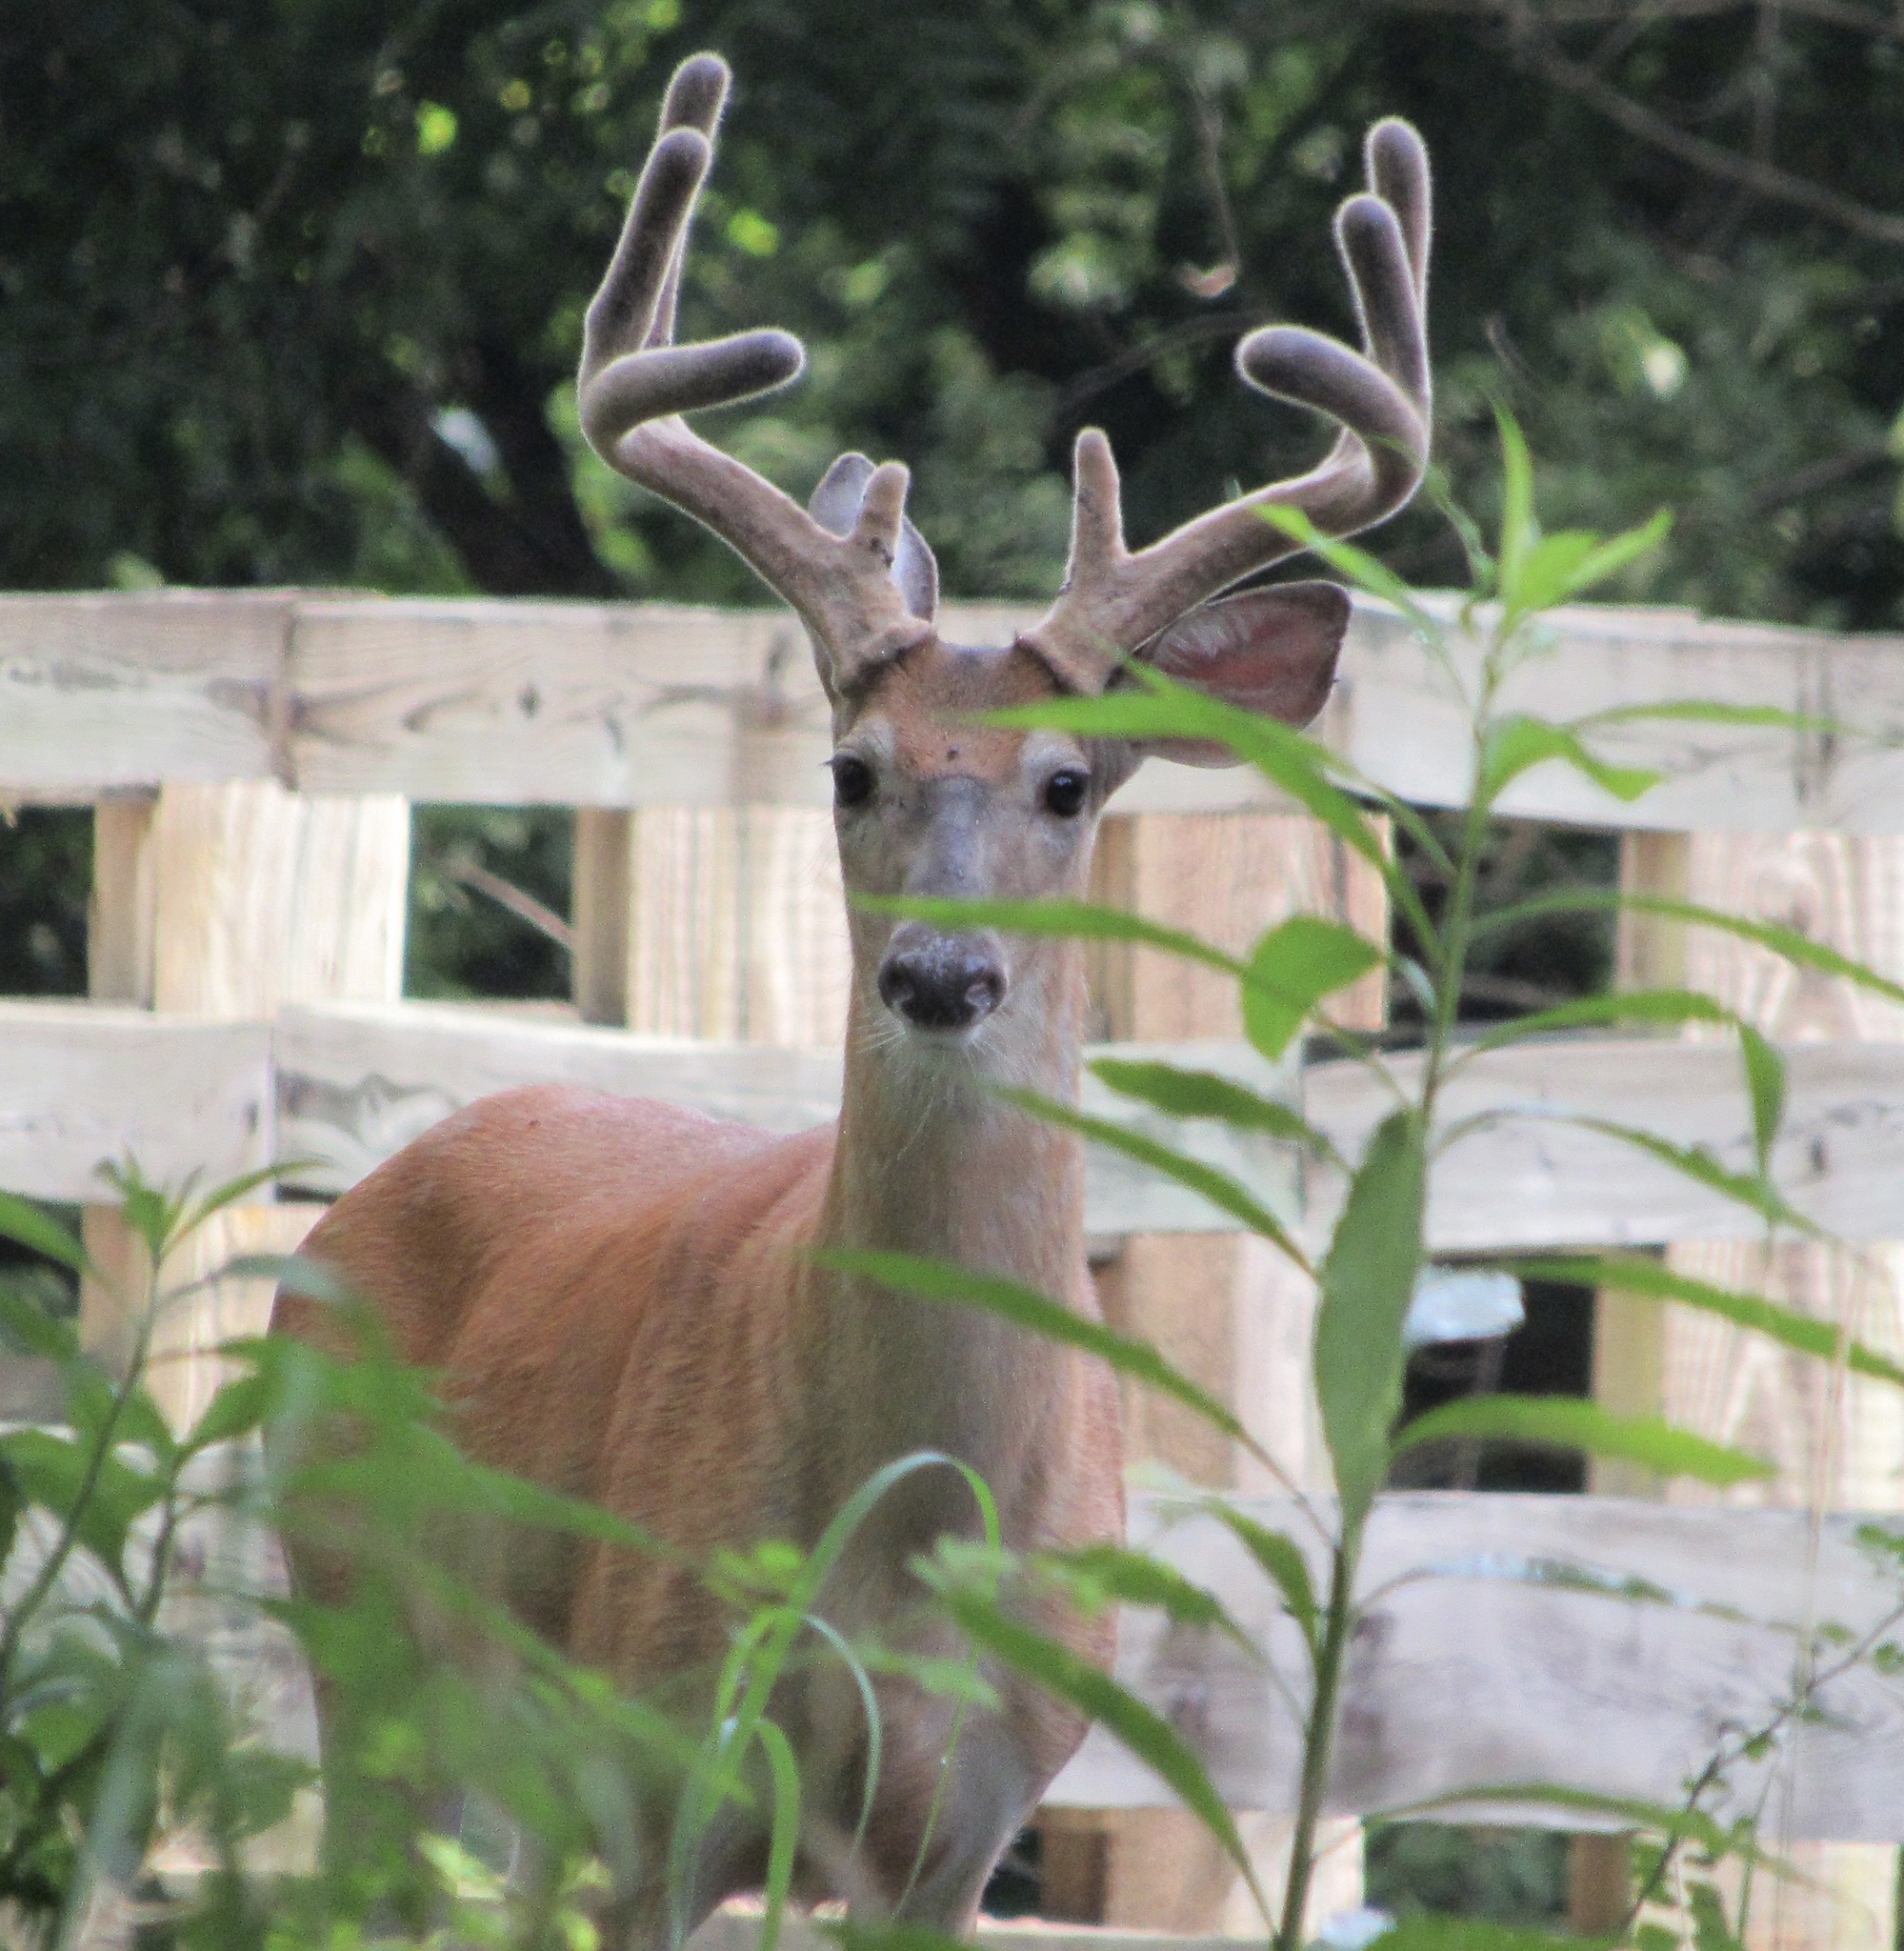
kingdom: Animalia
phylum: Chordata
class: Mammalia
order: Artiodactyla
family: Cervidae
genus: Odocoileus
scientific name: Odocoileus virginianus
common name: White-tailed deer
